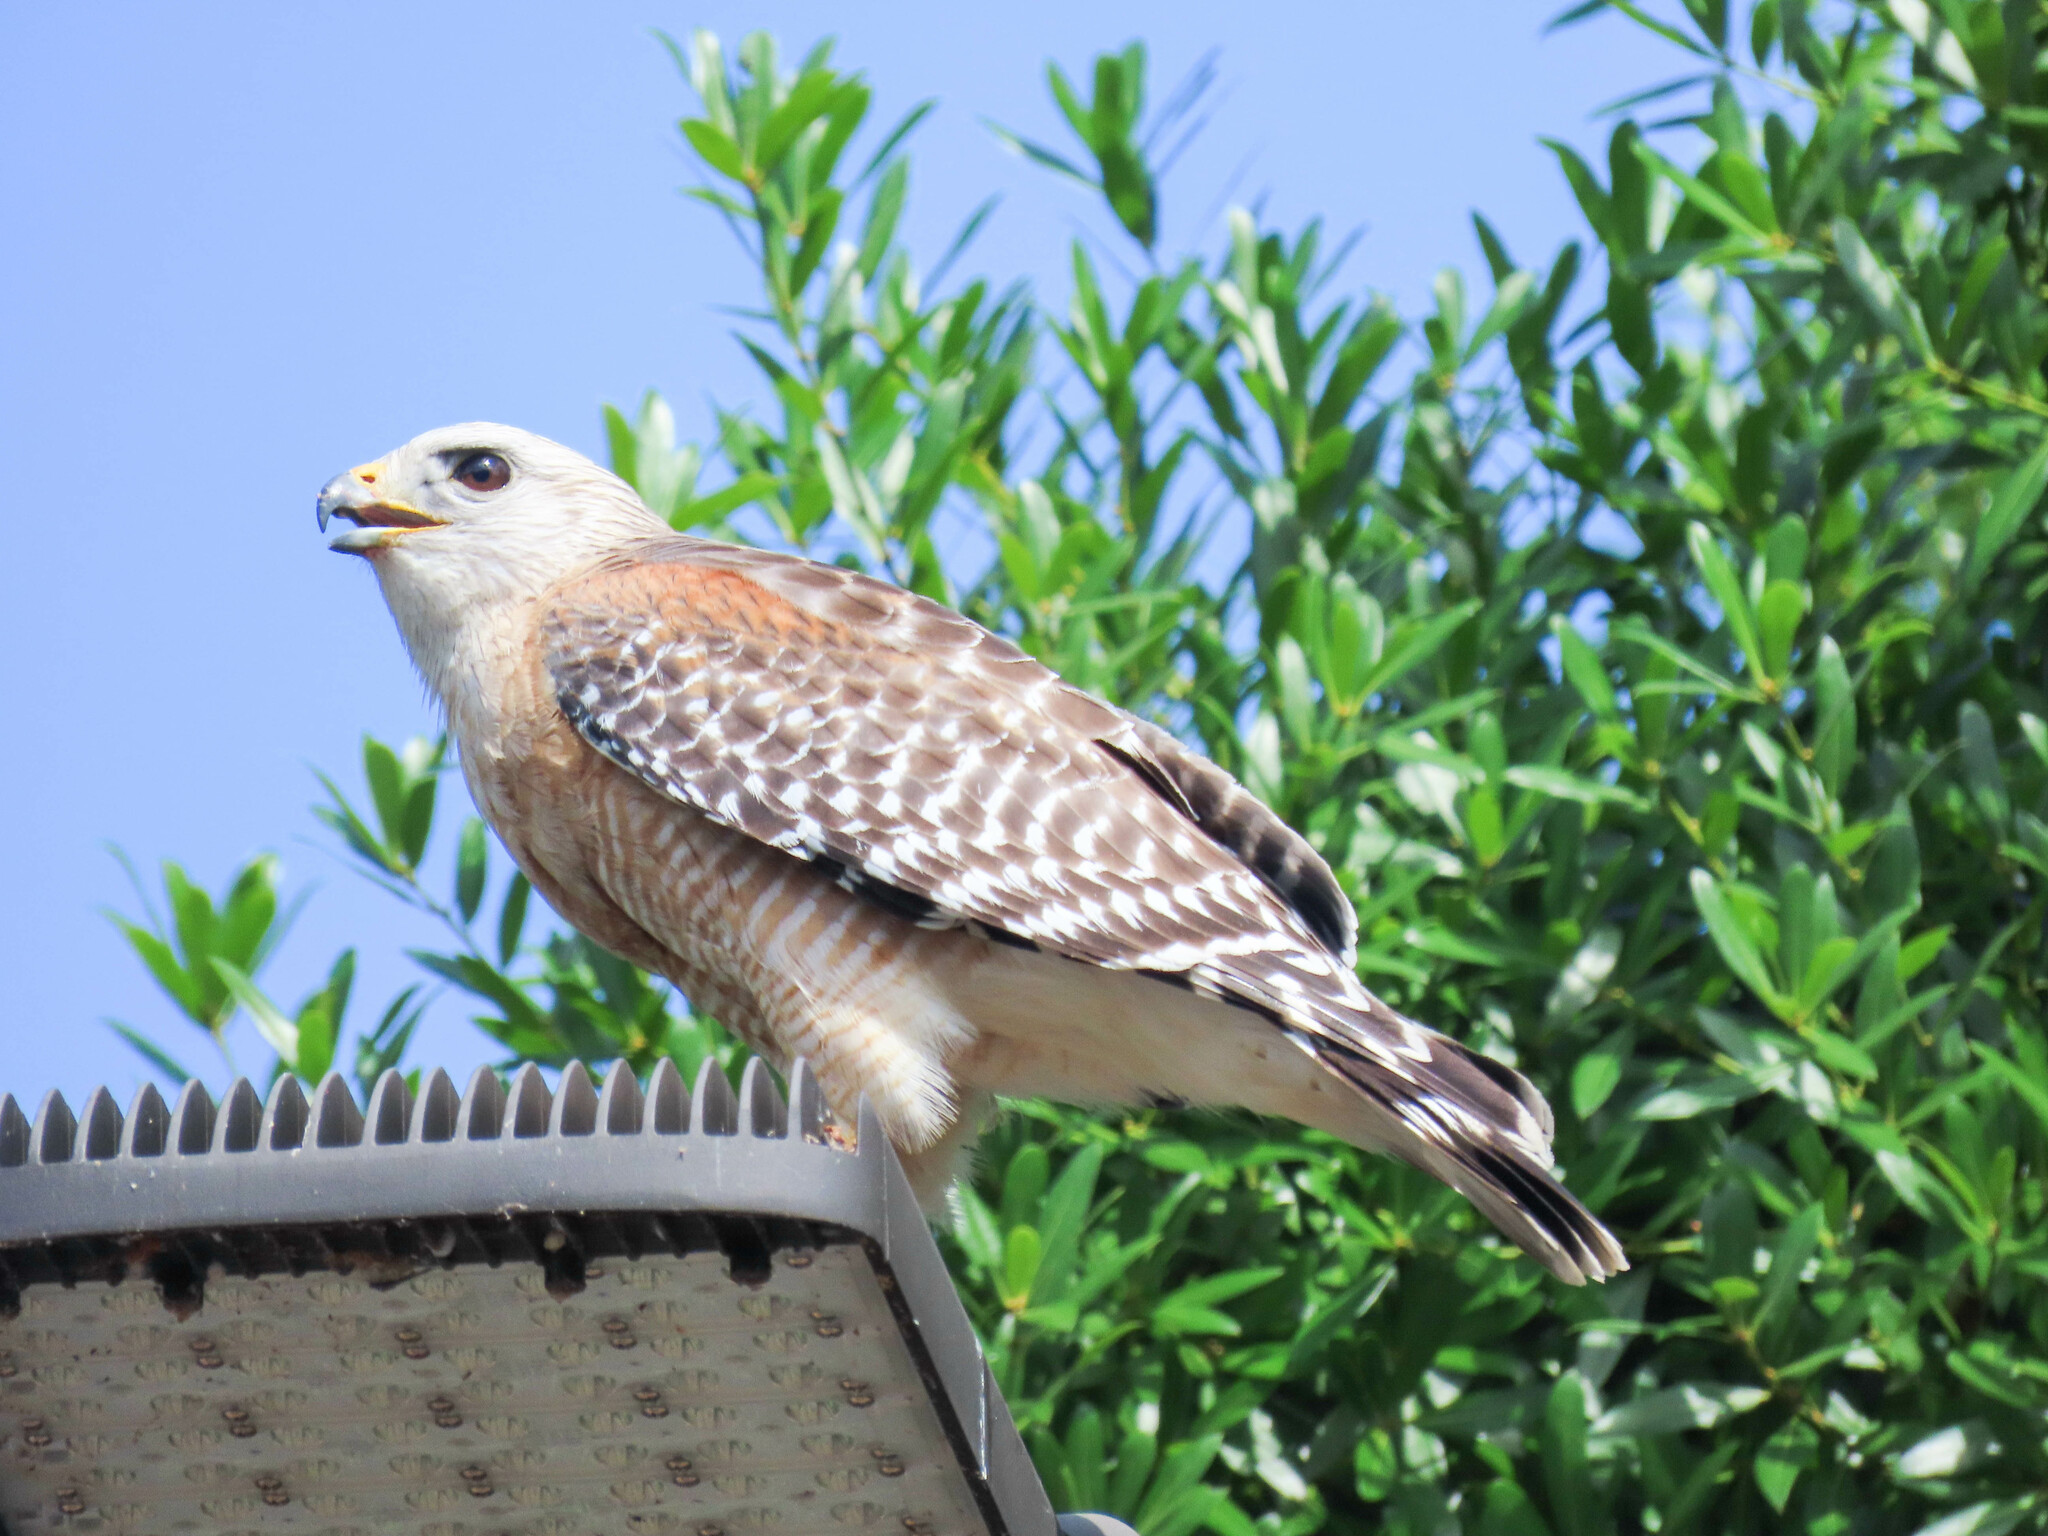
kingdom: Animalia
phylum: Chordata
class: Aves
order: Accipitriformes
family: Accipitridae
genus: Buteo
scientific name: Buteo lineatus
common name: Red-shouldered hawk
